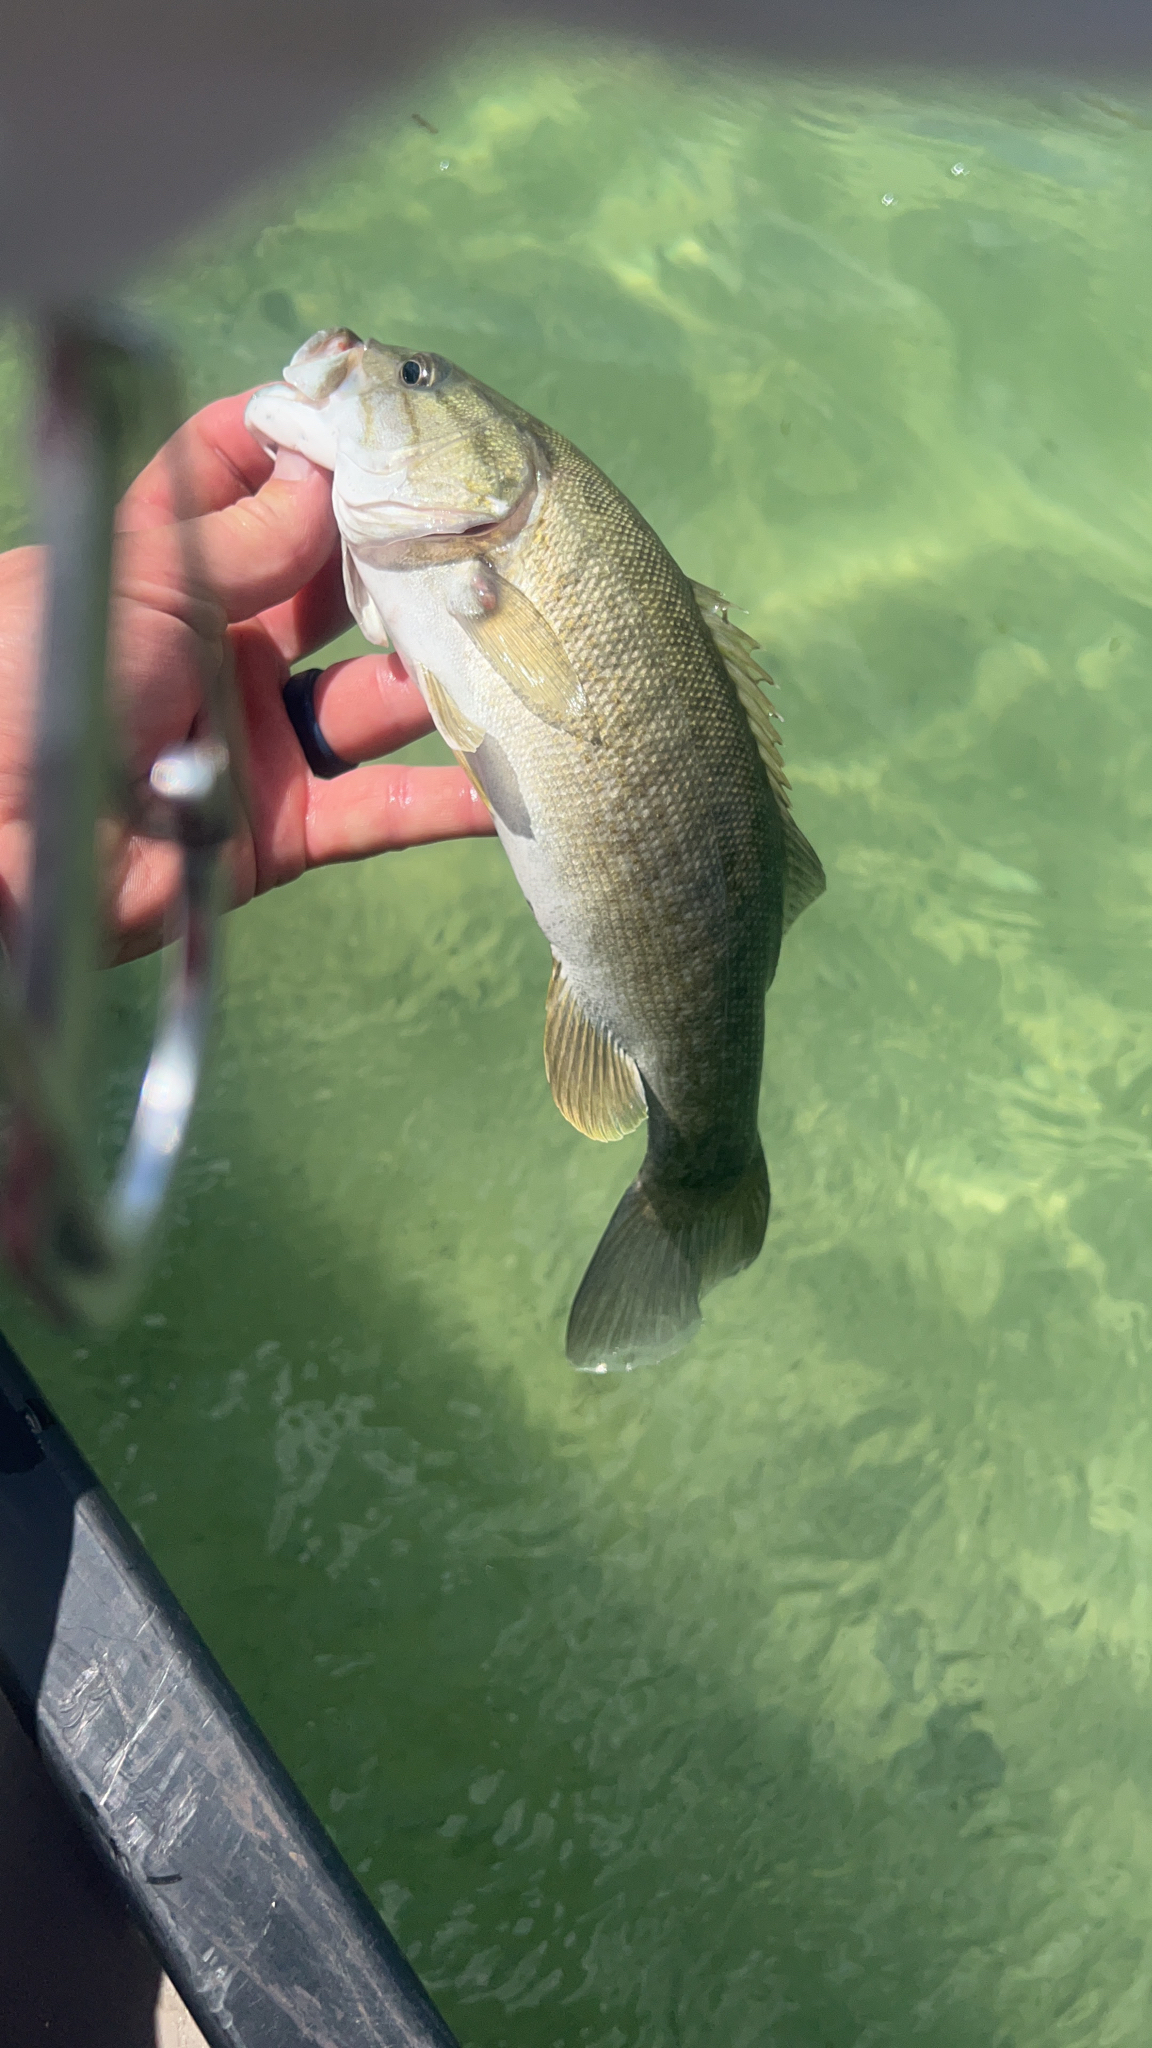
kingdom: Animalia
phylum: Chordata
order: Perciformes
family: Centrarchidae
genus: Micropterus
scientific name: Micropterus dolomieu
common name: Smallmouth bass
